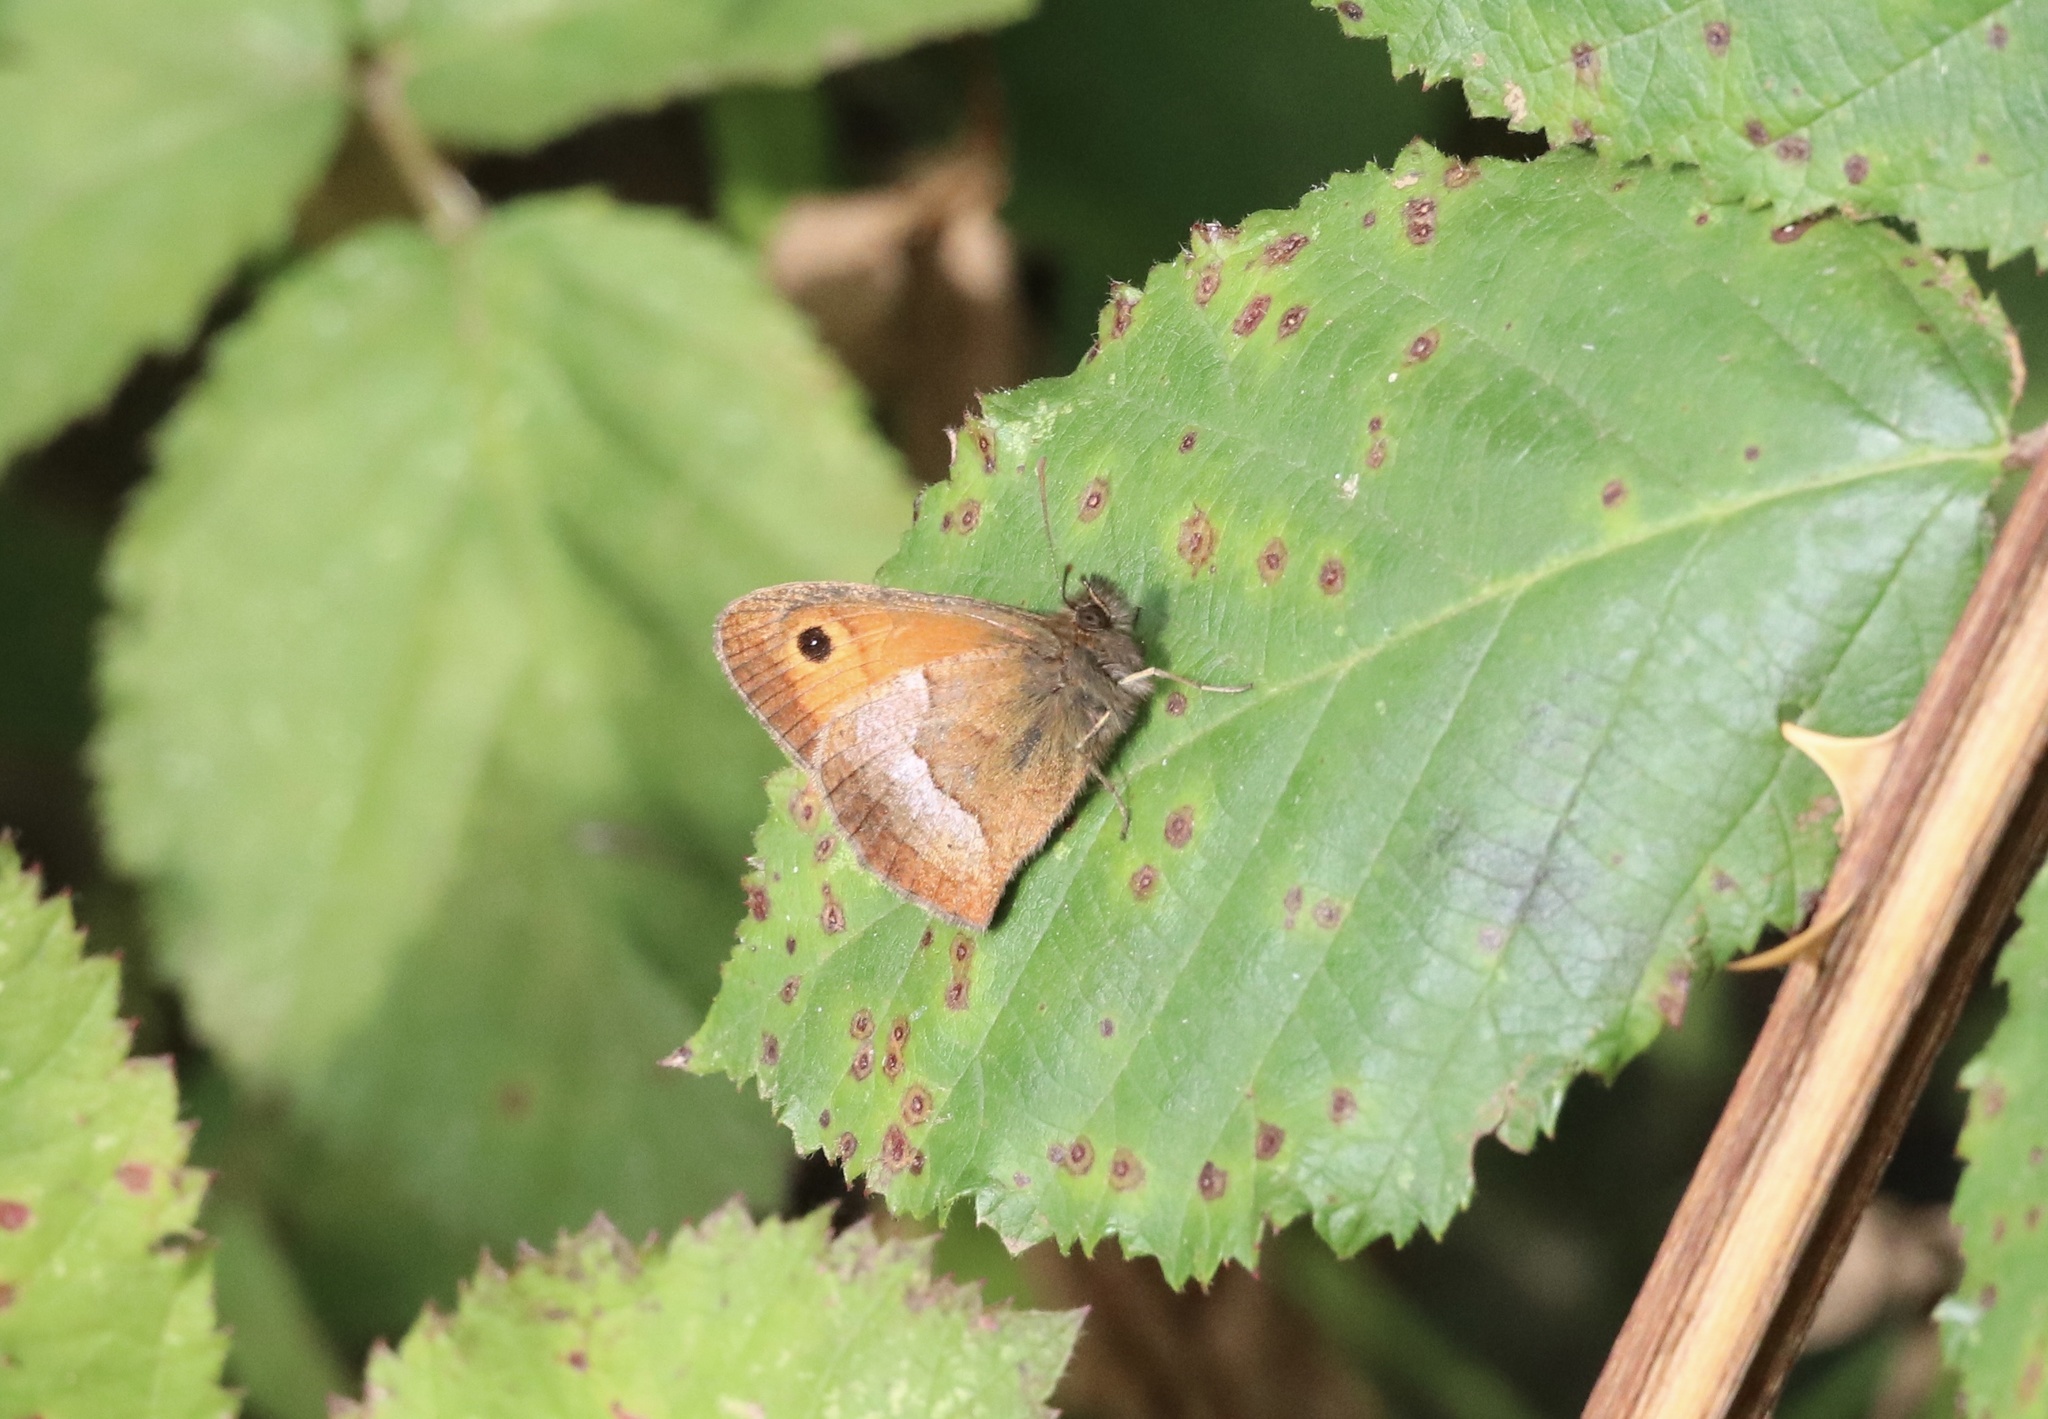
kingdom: Animalia
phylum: Arthropoda
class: Insecta
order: Lepidoptera
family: Nymphalidae
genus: Neomaenas
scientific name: Neomaenas poliozona
